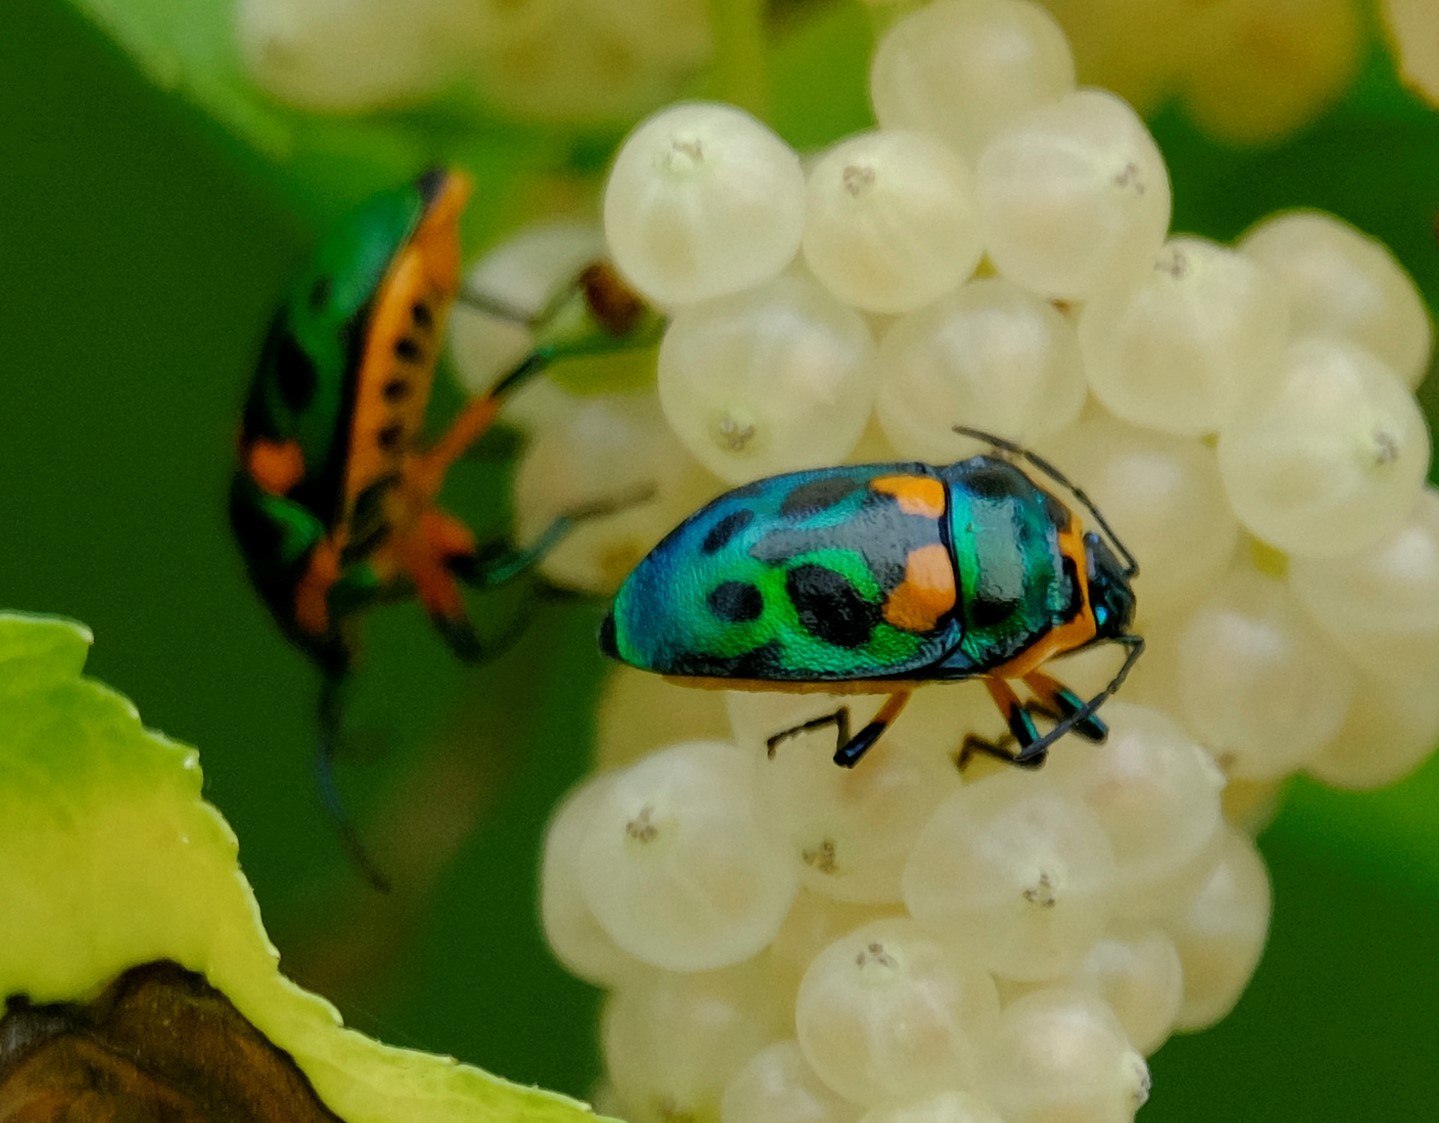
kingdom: Animalia
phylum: Arthropoda
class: Insecta
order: Hemiptera
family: Scutelleridae
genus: Scutiphora
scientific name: Scutiphora pedicellata
